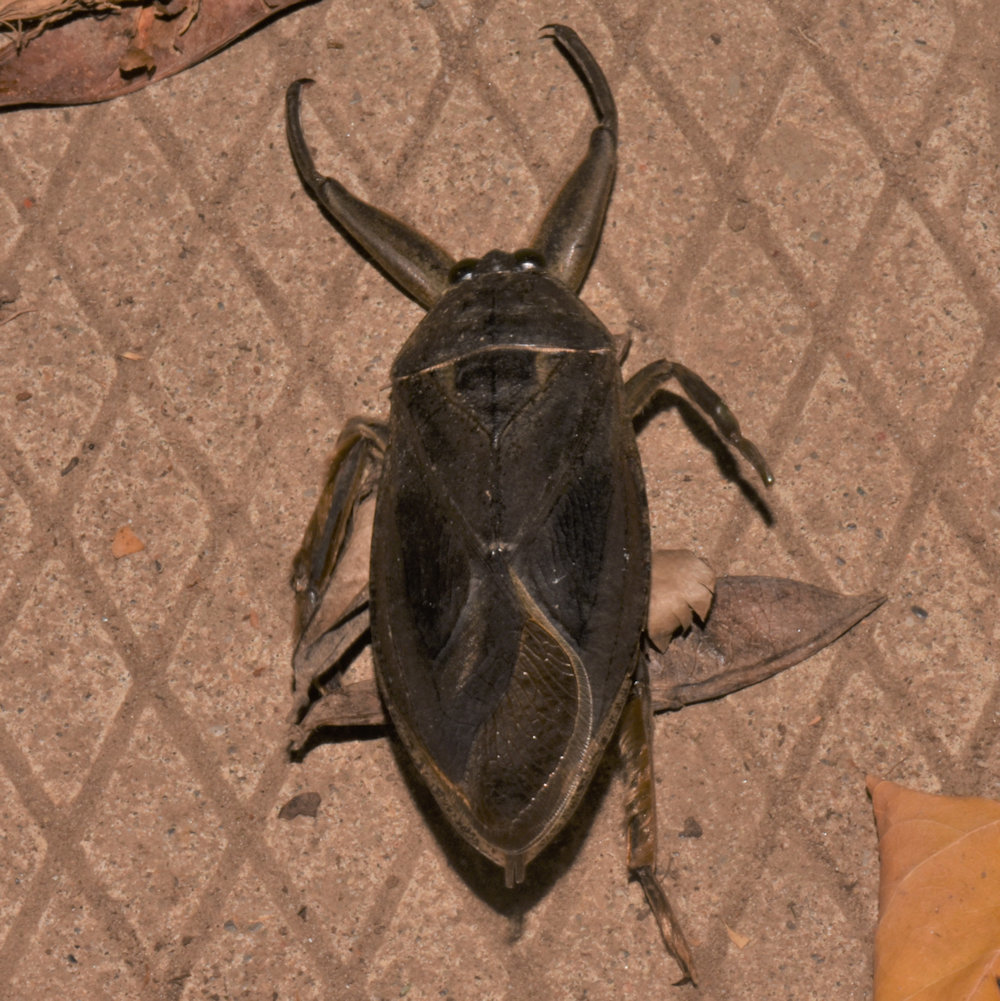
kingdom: Animalia
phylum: Arthropoda
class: Insecta
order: Hemiptera
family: Belostomatidae
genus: Lethocerus
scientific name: Lethocerus americanus
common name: Giant water bug
